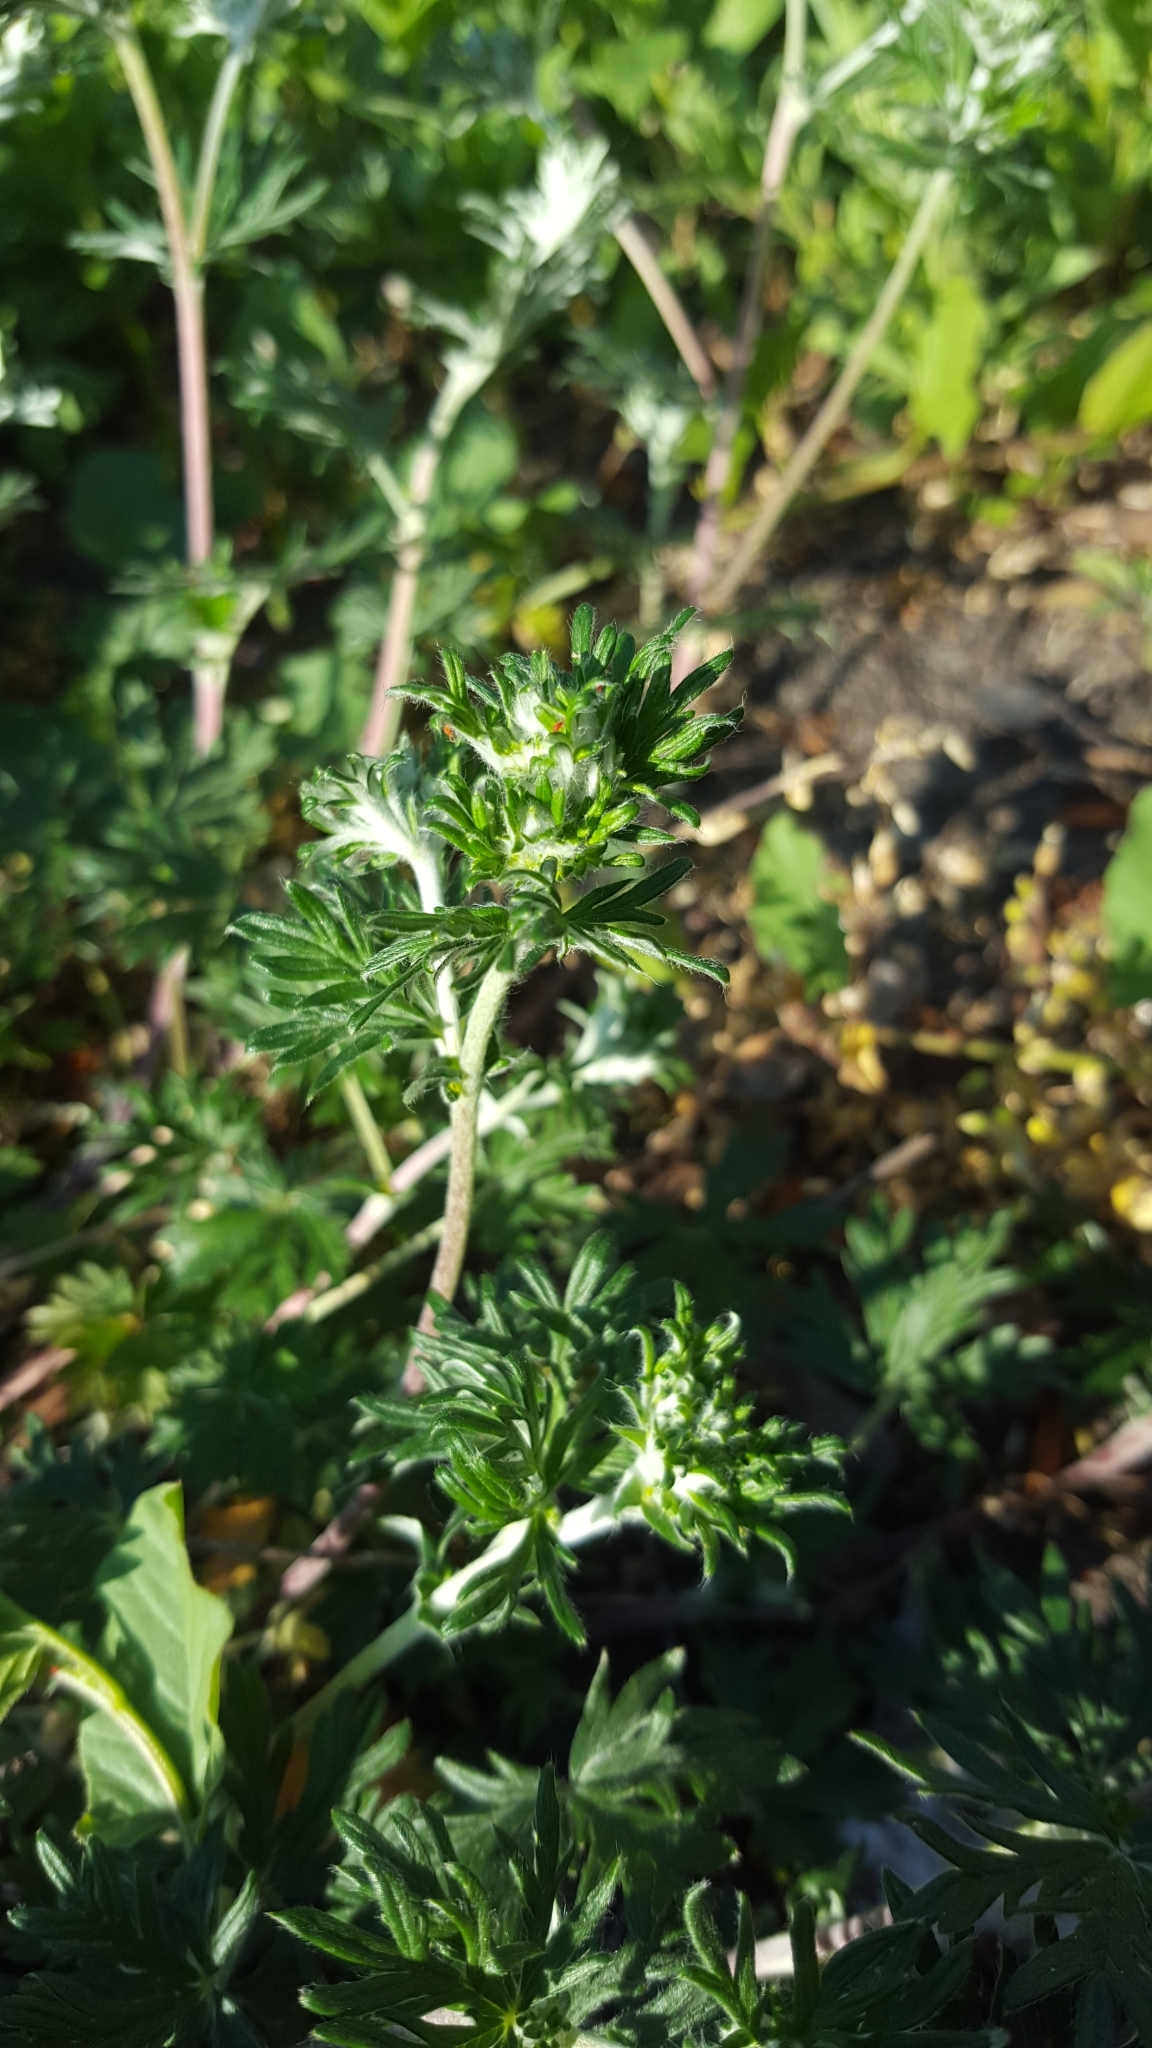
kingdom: Plantae
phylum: Tracheophyta
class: Magnoliopsida
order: Rosales
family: Rosaceae
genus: Potentilla
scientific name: Potentilla argentea
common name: Hoary cinquefoil
